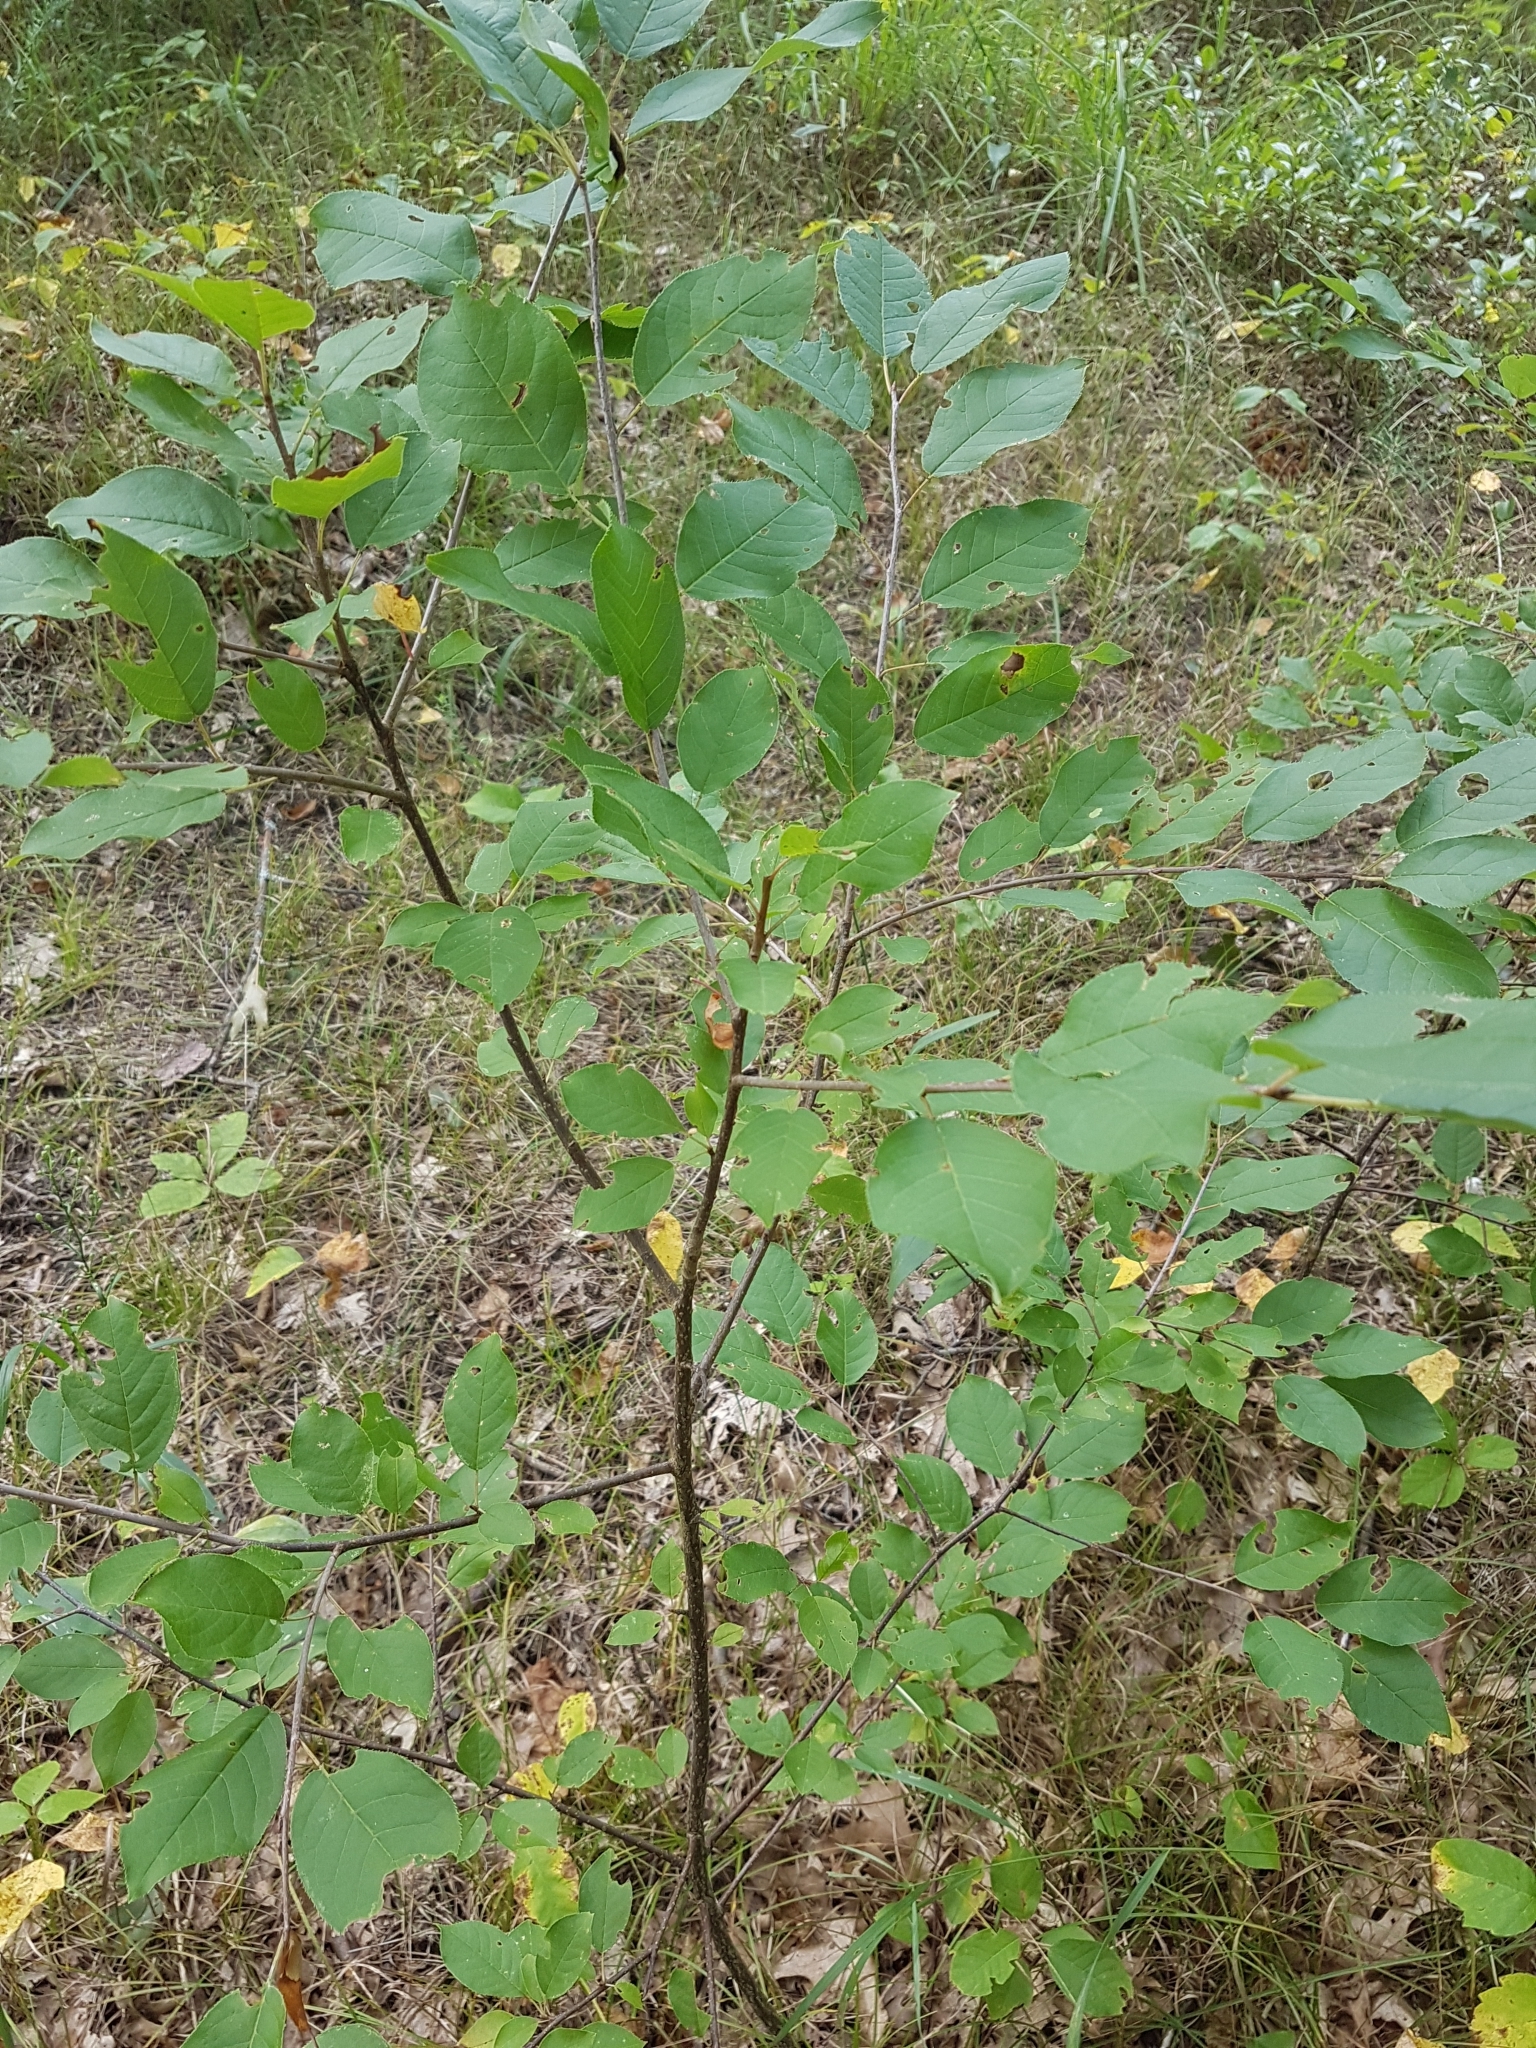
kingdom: Plantae
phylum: Tracheophyta
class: Magnoliopsida
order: Rosales
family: Rosaceae
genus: Prunus
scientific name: Prunus virginiana
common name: Chokecherry
